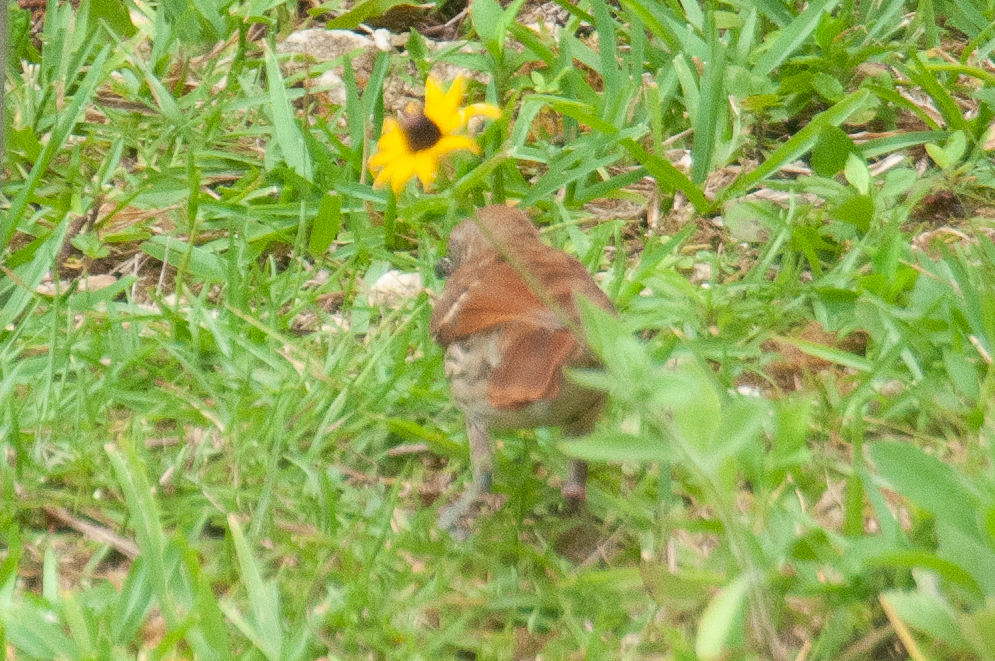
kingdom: Animalia
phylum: Chordata
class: Aves
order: Passeriformes
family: Mimidae
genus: Toxostoma
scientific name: Toxostoma rufum
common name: Brown thrasher
